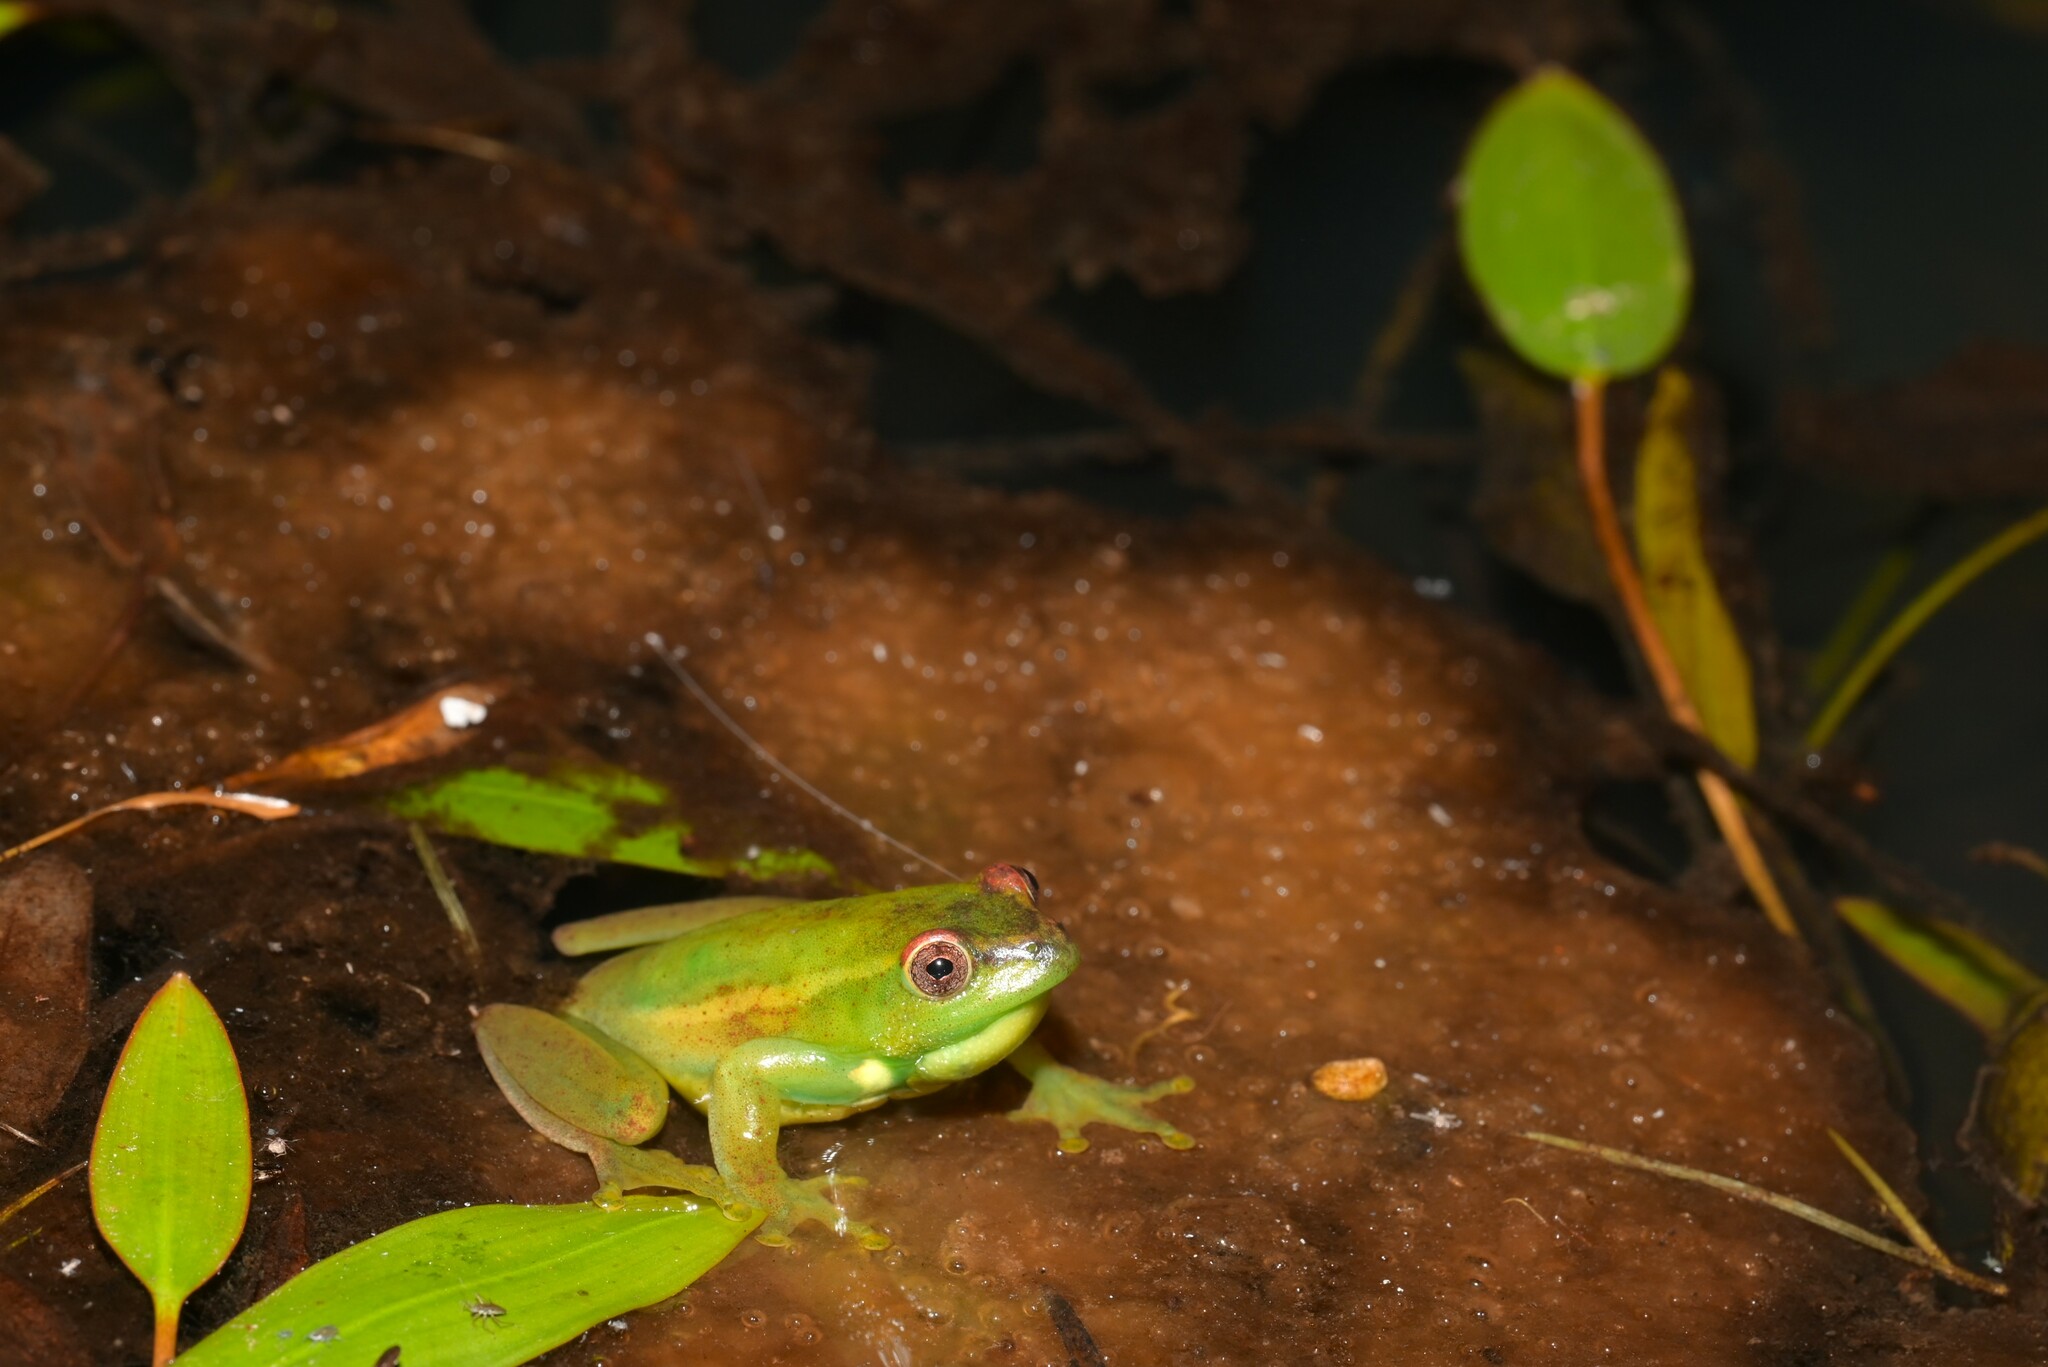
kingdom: Animalia
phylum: Chordata
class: Amphibia
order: Anura
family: Hyperoliidae
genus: Hyperolius
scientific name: Hyperolius pseudargus
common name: Mette's reed frog
